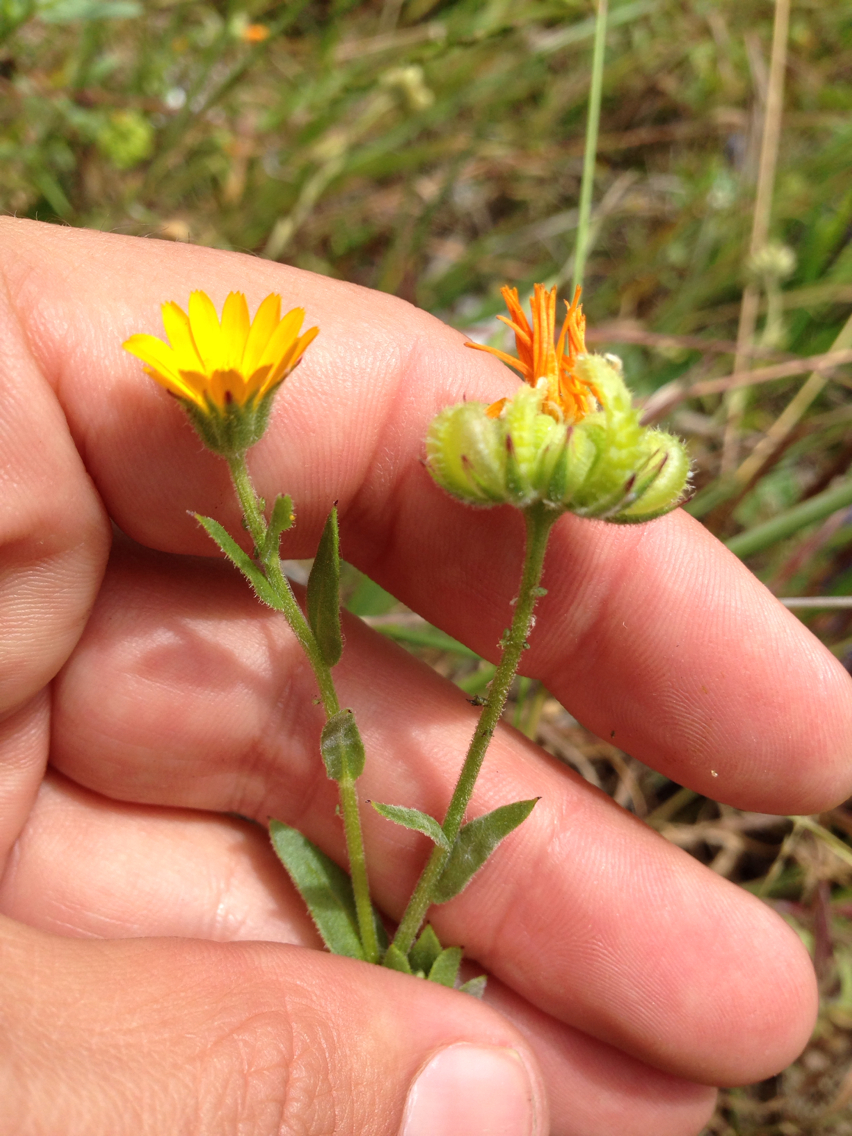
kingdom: Plantae
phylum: Tracheophyta
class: Magnoliopsida
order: Asterales
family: Asteraceae
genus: Calendula
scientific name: Calendula arvensis
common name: Field marigold
